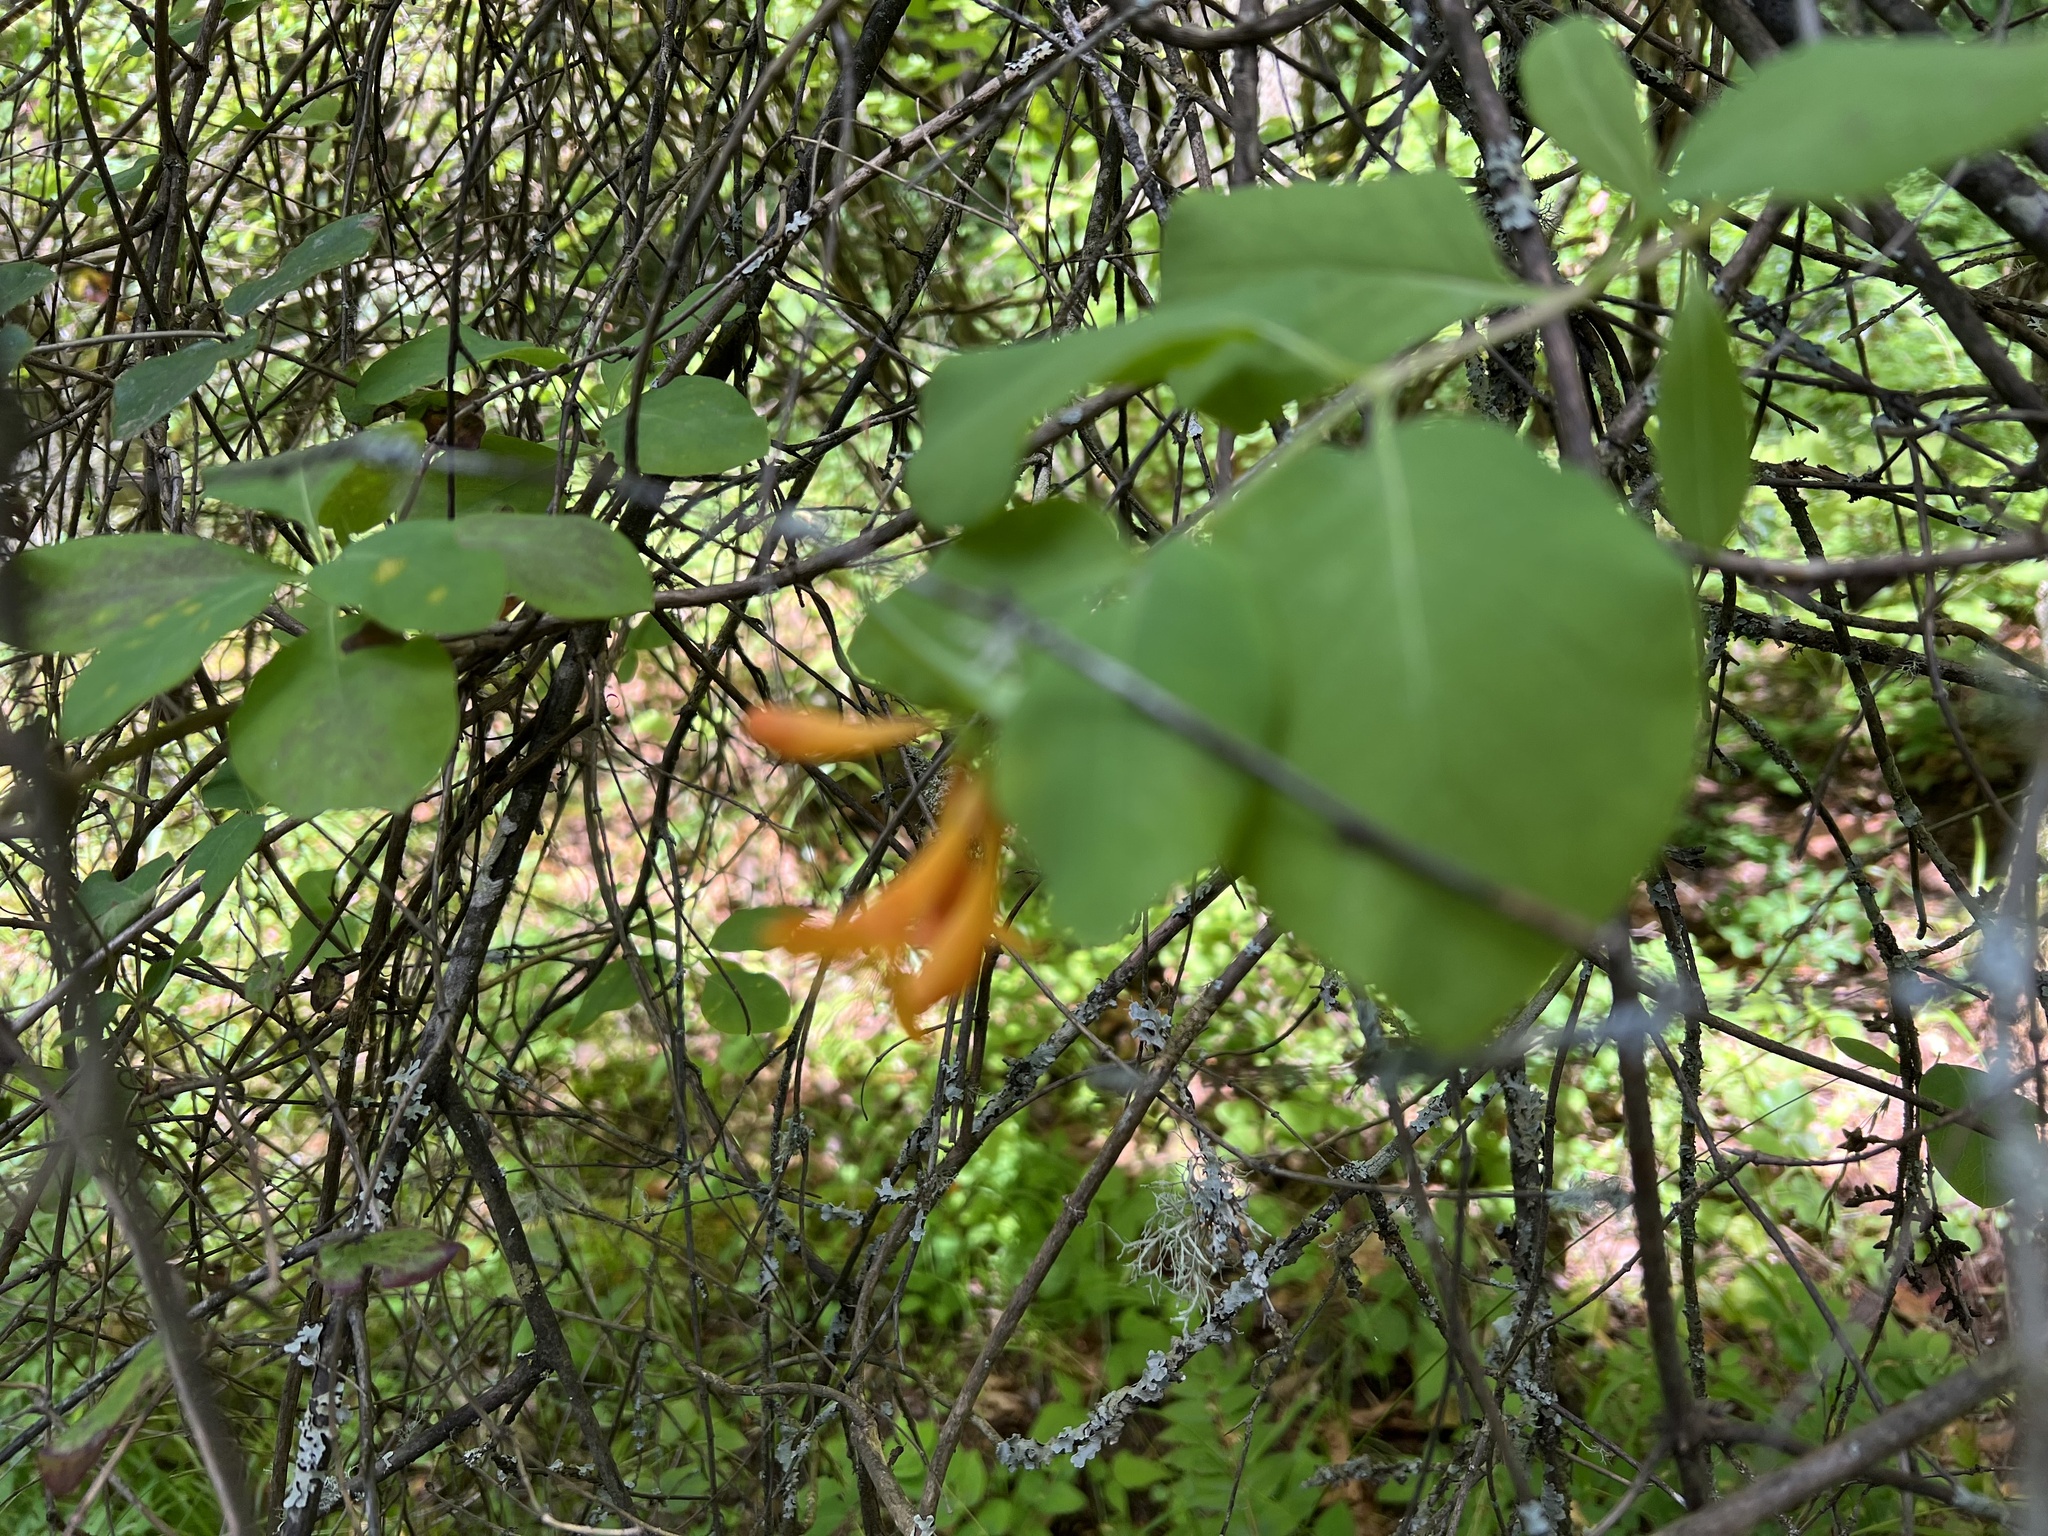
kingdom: Plantae
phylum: Tracheophyta
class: Magnoliopsida
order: Dipsacales
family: Caprifoliaceae
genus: Lonicera
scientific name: Lonicera ciliosa
